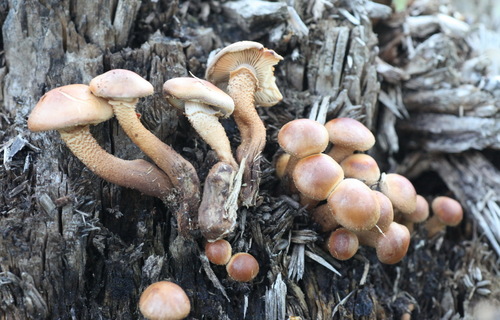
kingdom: Fungi
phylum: Basidiomycota
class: Agaricomycetes
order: Agaricales
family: Strophariaceae
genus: Kuehneromyces
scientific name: Kuehneromyces mutabilis
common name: Sheathed woodtuft
